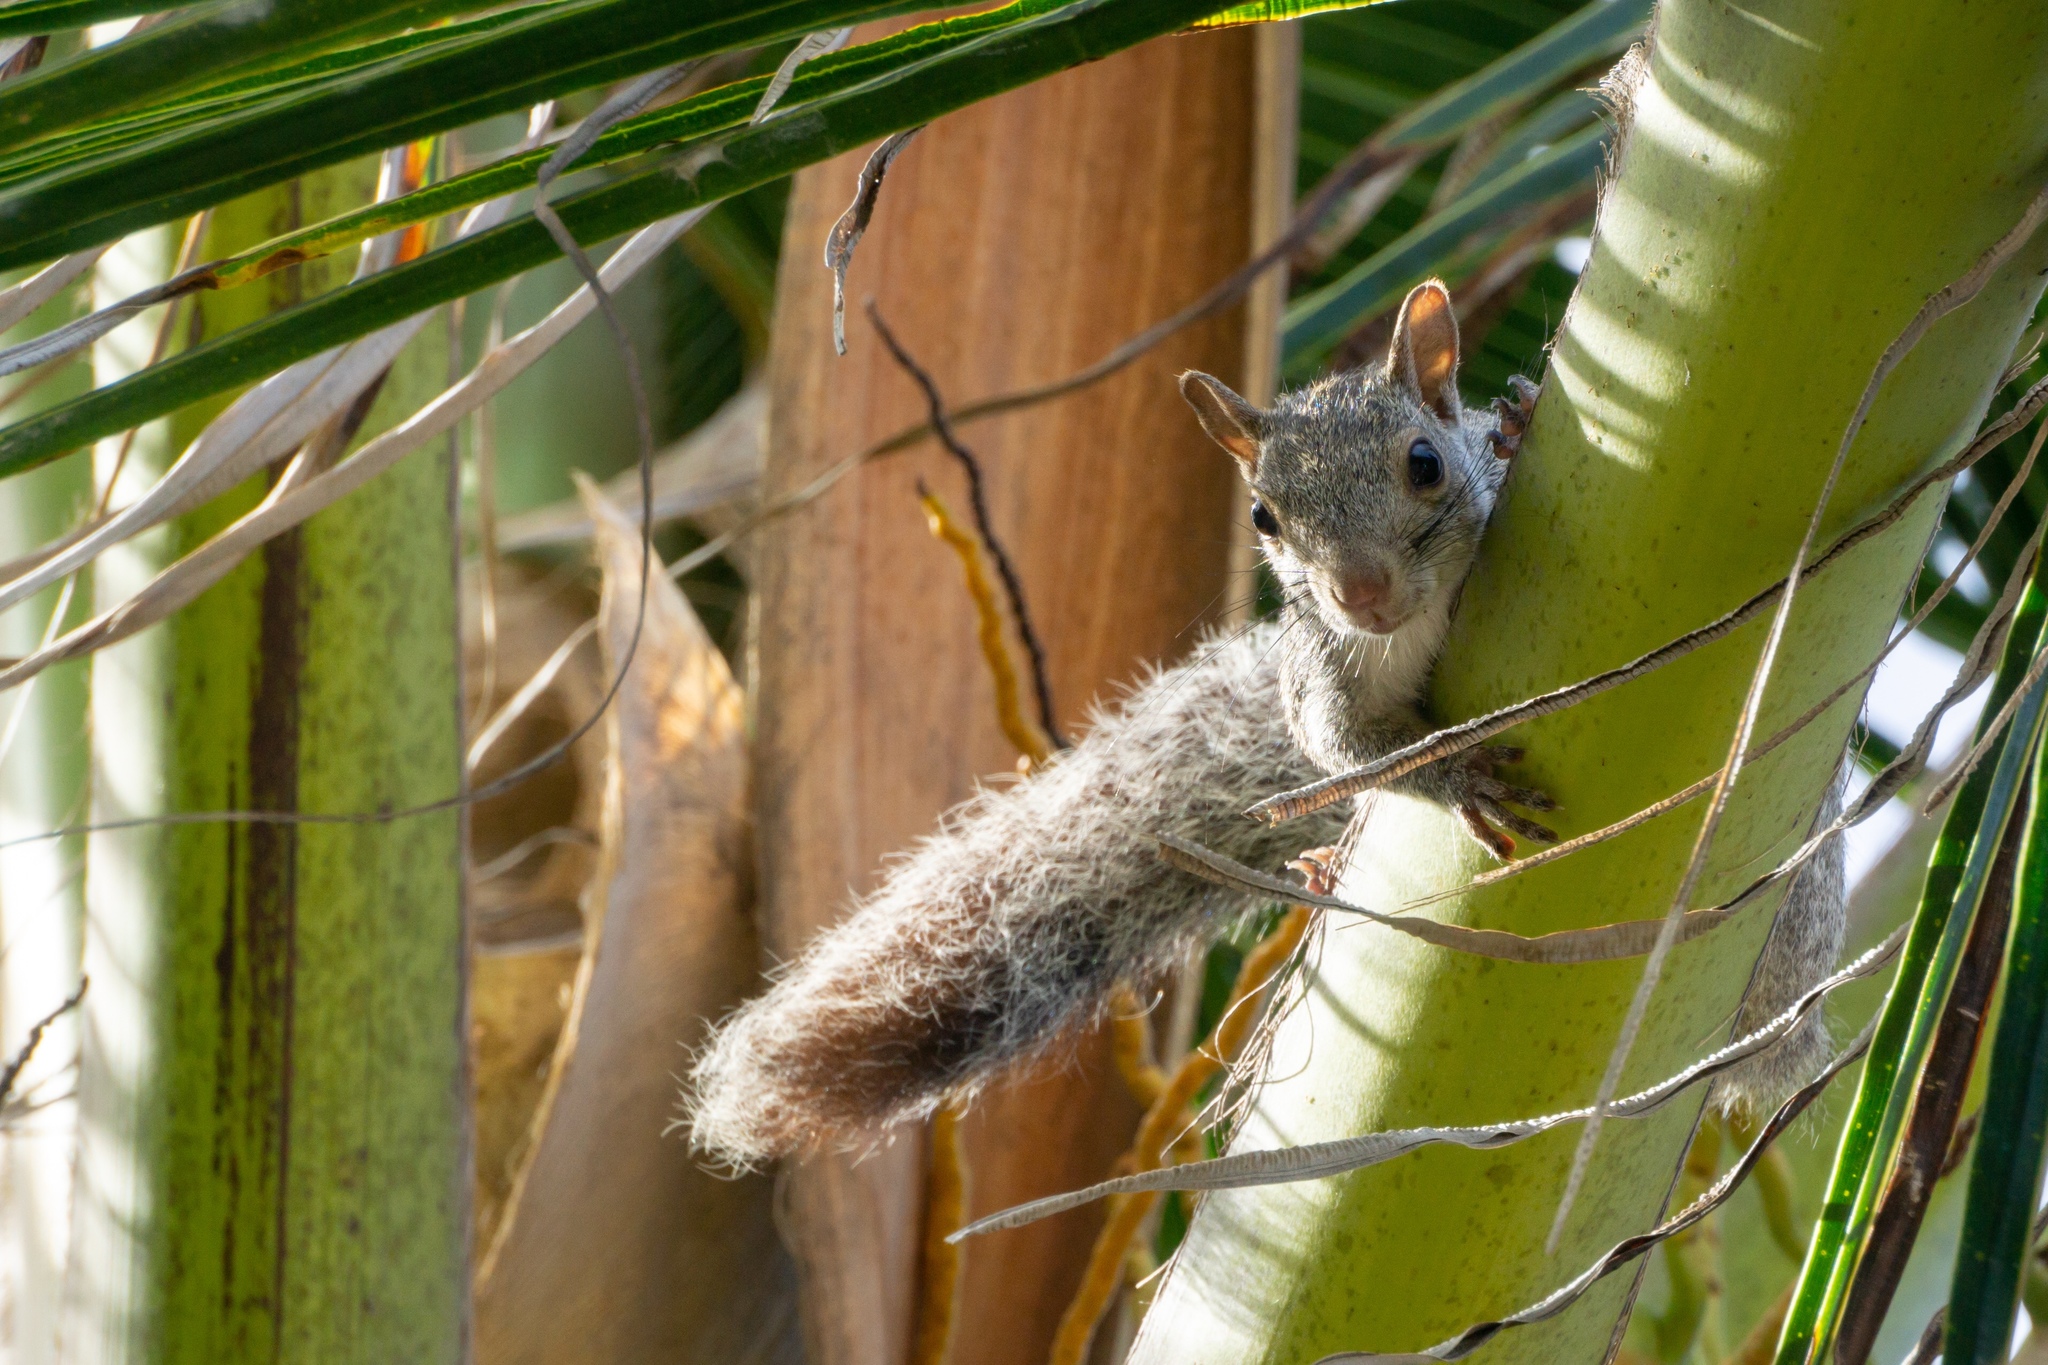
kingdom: Animalia
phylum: Chordata
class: Mammalia
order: Rodentia
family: Sciuridae
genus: Sciurus
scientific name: Sciurus yucatanensis
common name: Yucatan squirrel
